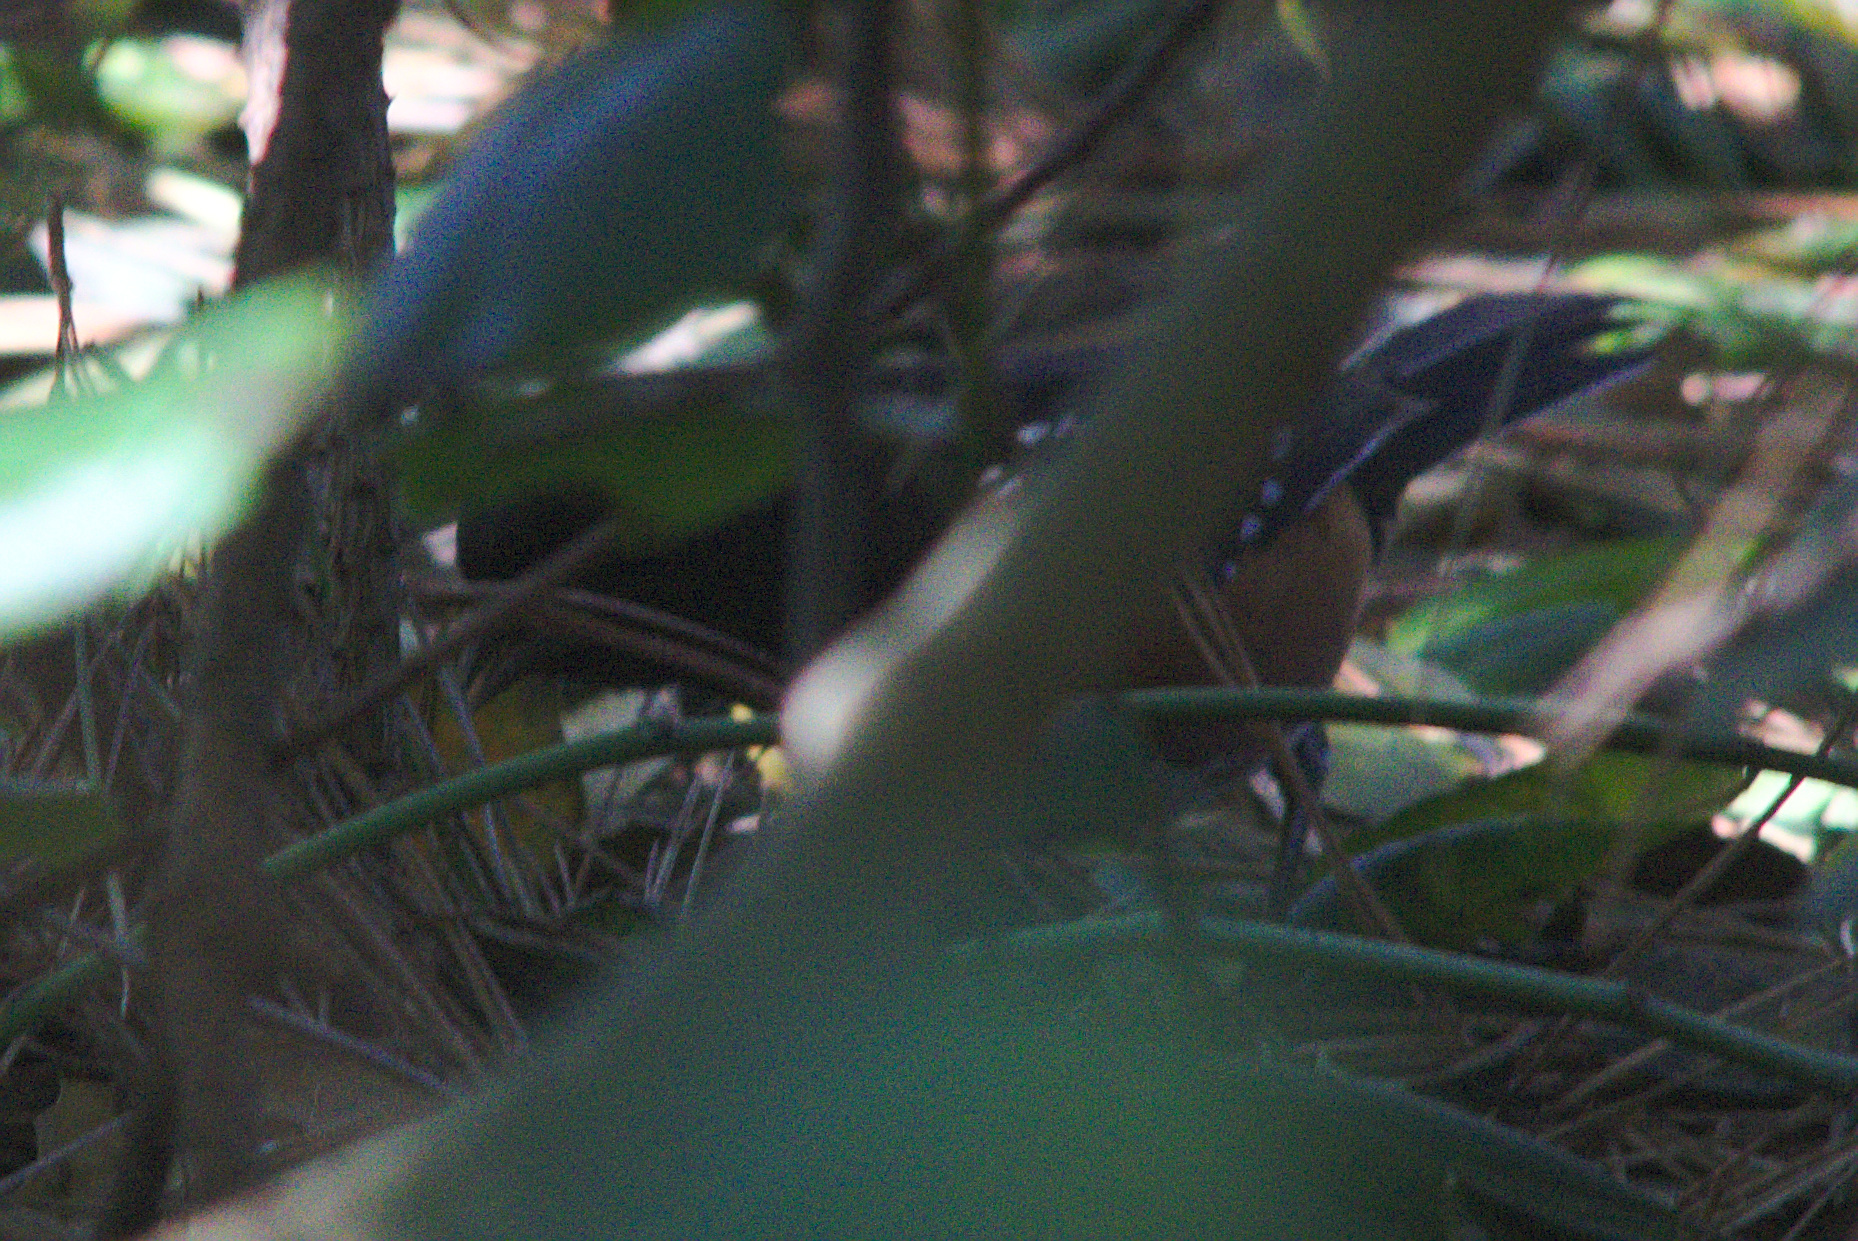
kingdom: Animalia
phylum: Chordata
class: Aves
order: Passeriformes
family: Passerellidae
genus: Pipilo
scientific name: Pipilo maculatus
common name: Spotted towhee
